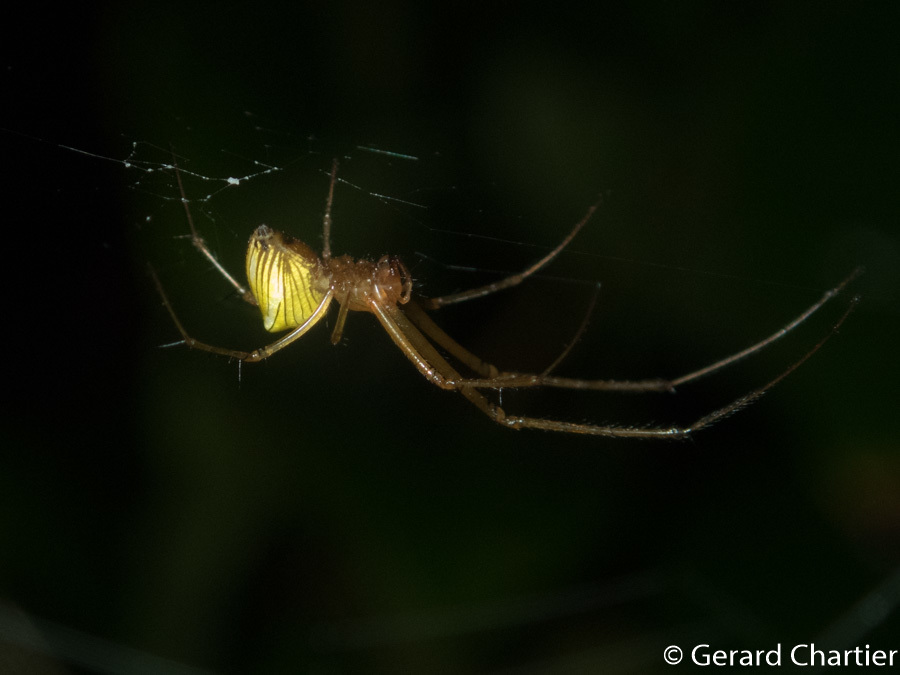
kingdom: Animalia
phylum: Arthropoda
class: Arachnida
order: Araneae
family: Tetragnathidae
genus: Tylorida
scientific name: Tylorida striata
